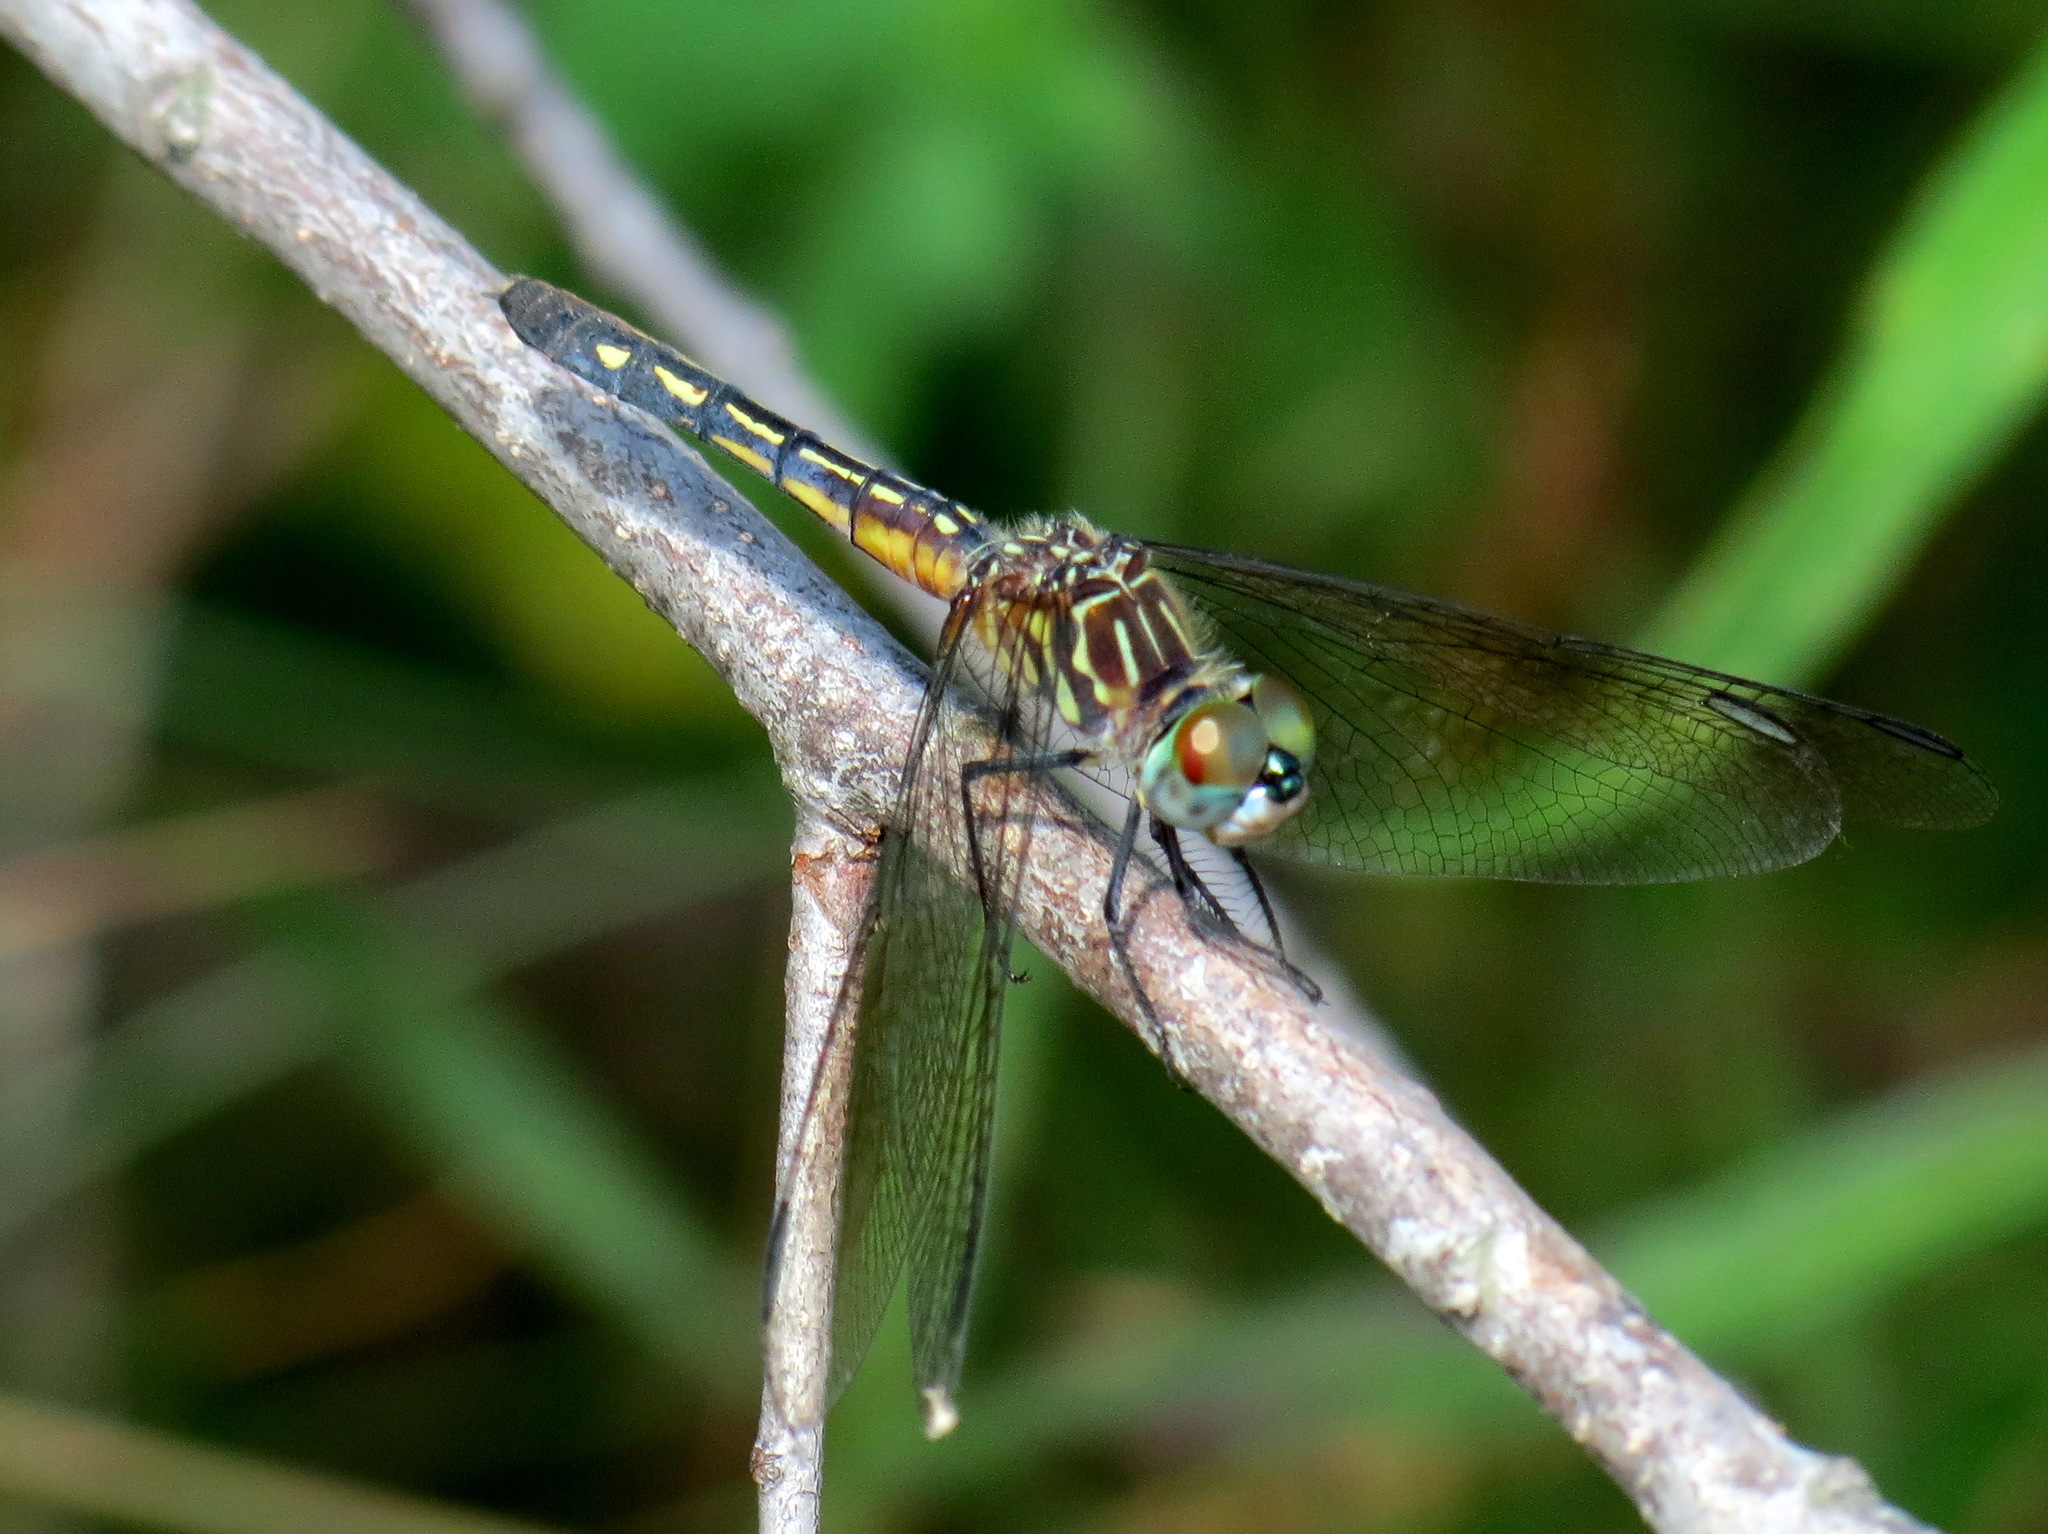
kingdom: Animalia
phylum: Arthropoda
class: Insecta
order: Odonata
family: Libellulidae
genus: Pachydiplax
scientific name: Pachydiplax longipennis
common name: Blue dasher
